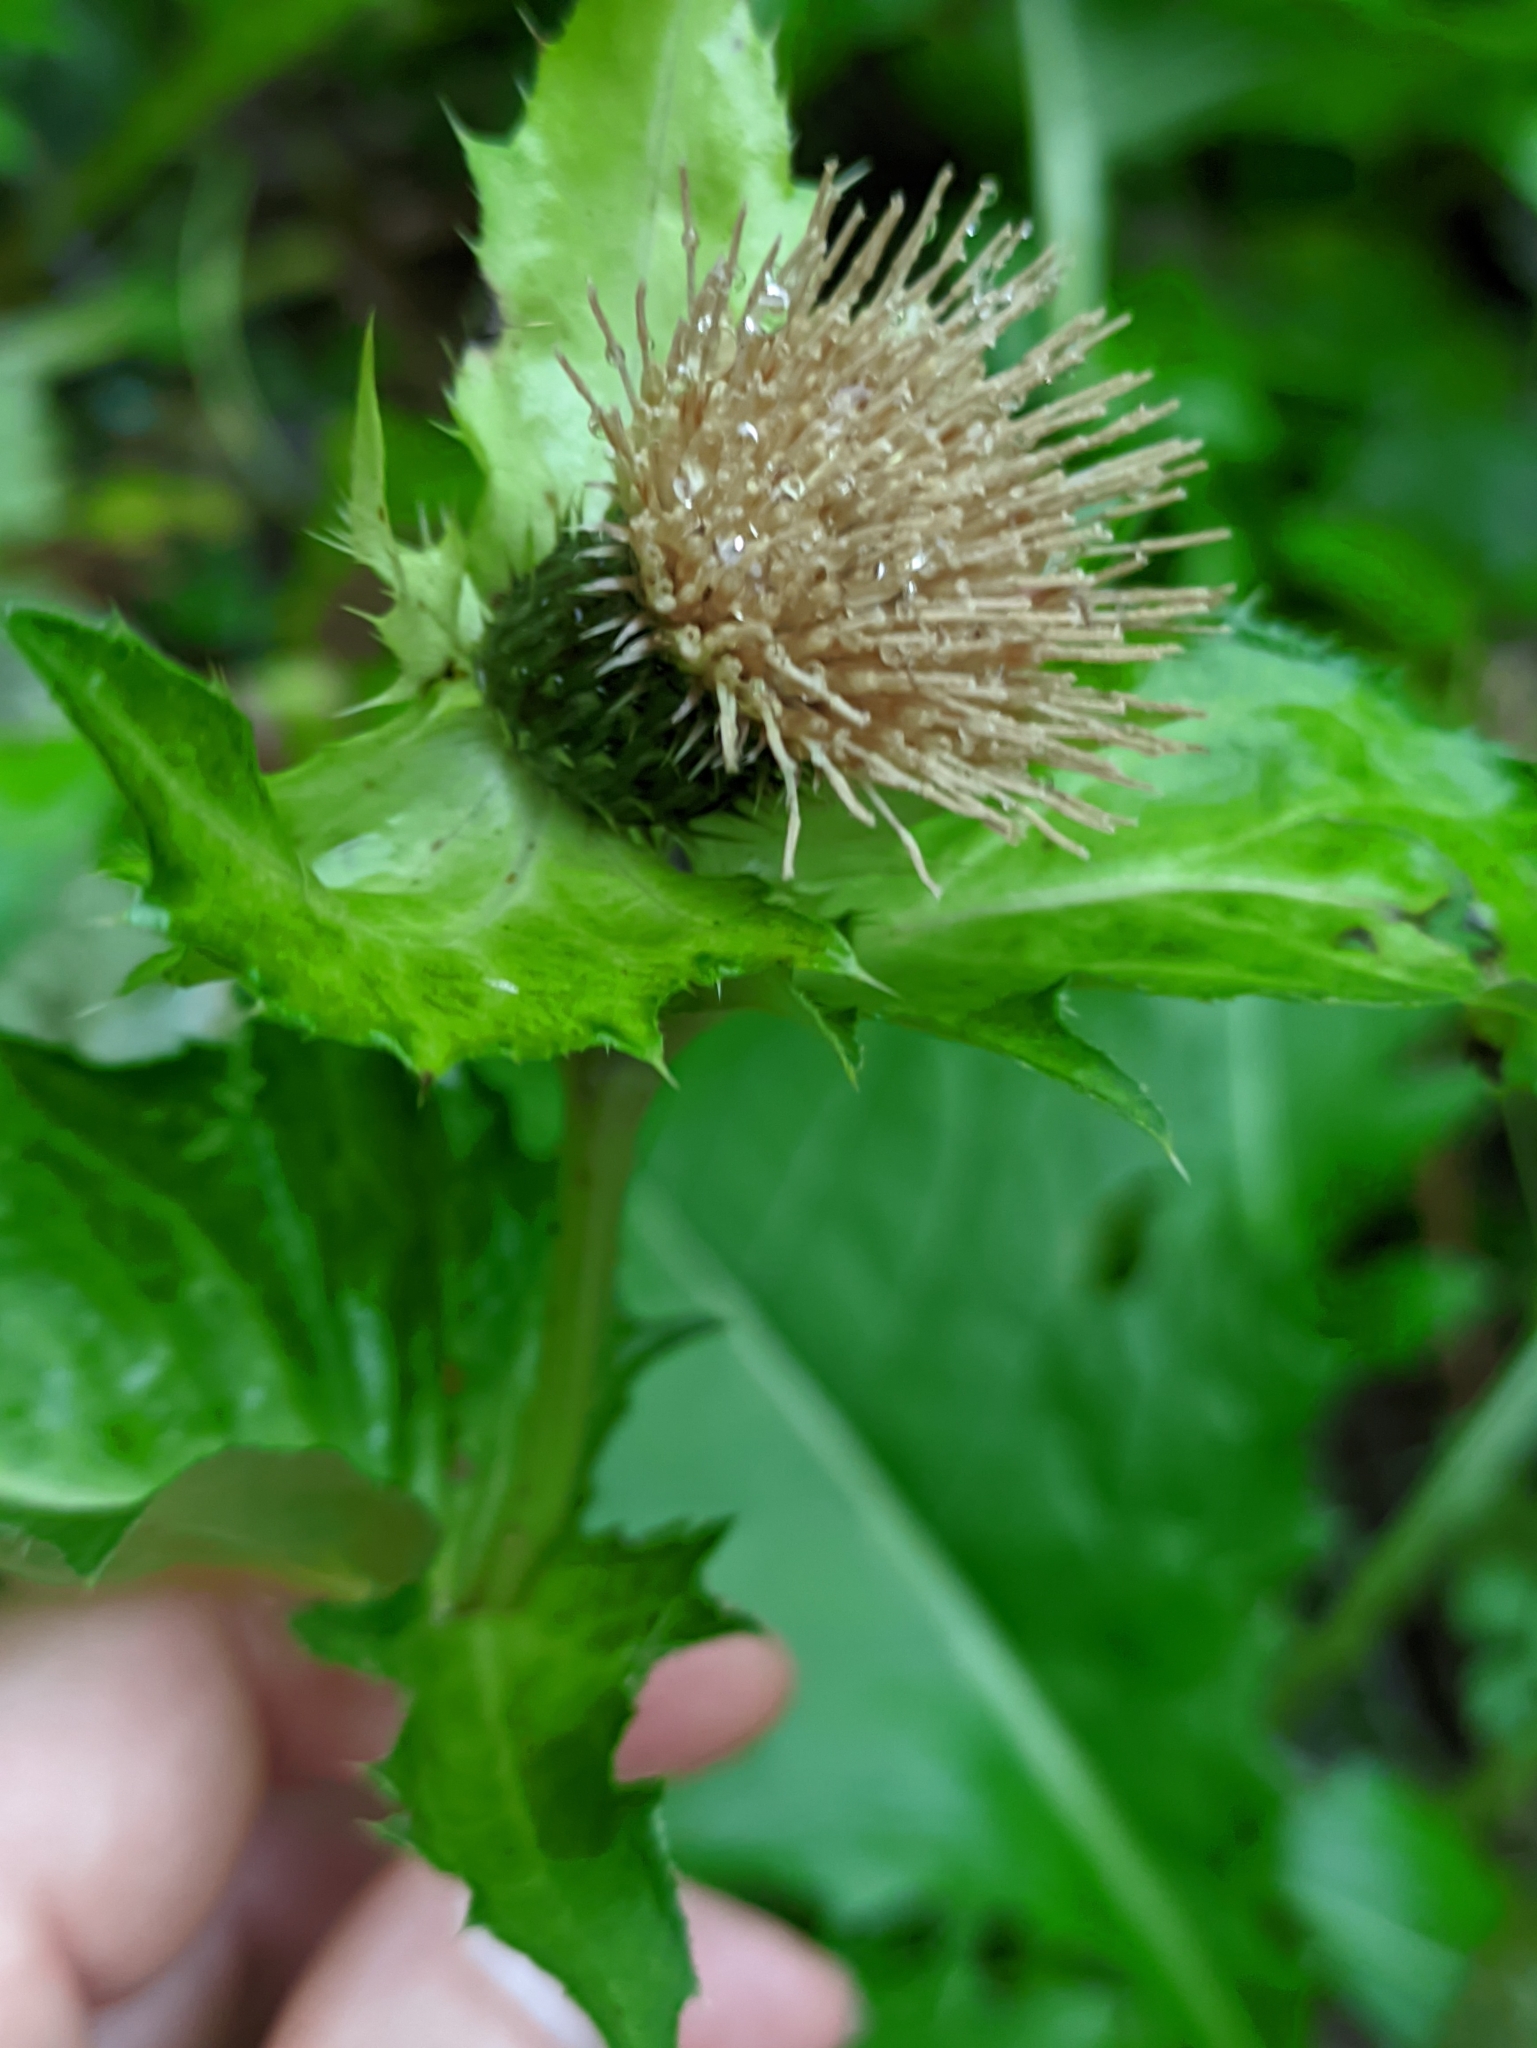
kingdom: Plantae
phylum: Tracheophyta
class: Magnoliopsida
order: Asterales
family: Asteraceae
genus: Cirsium
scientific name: Cirsium oleraceum
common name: Cabbage thistle
